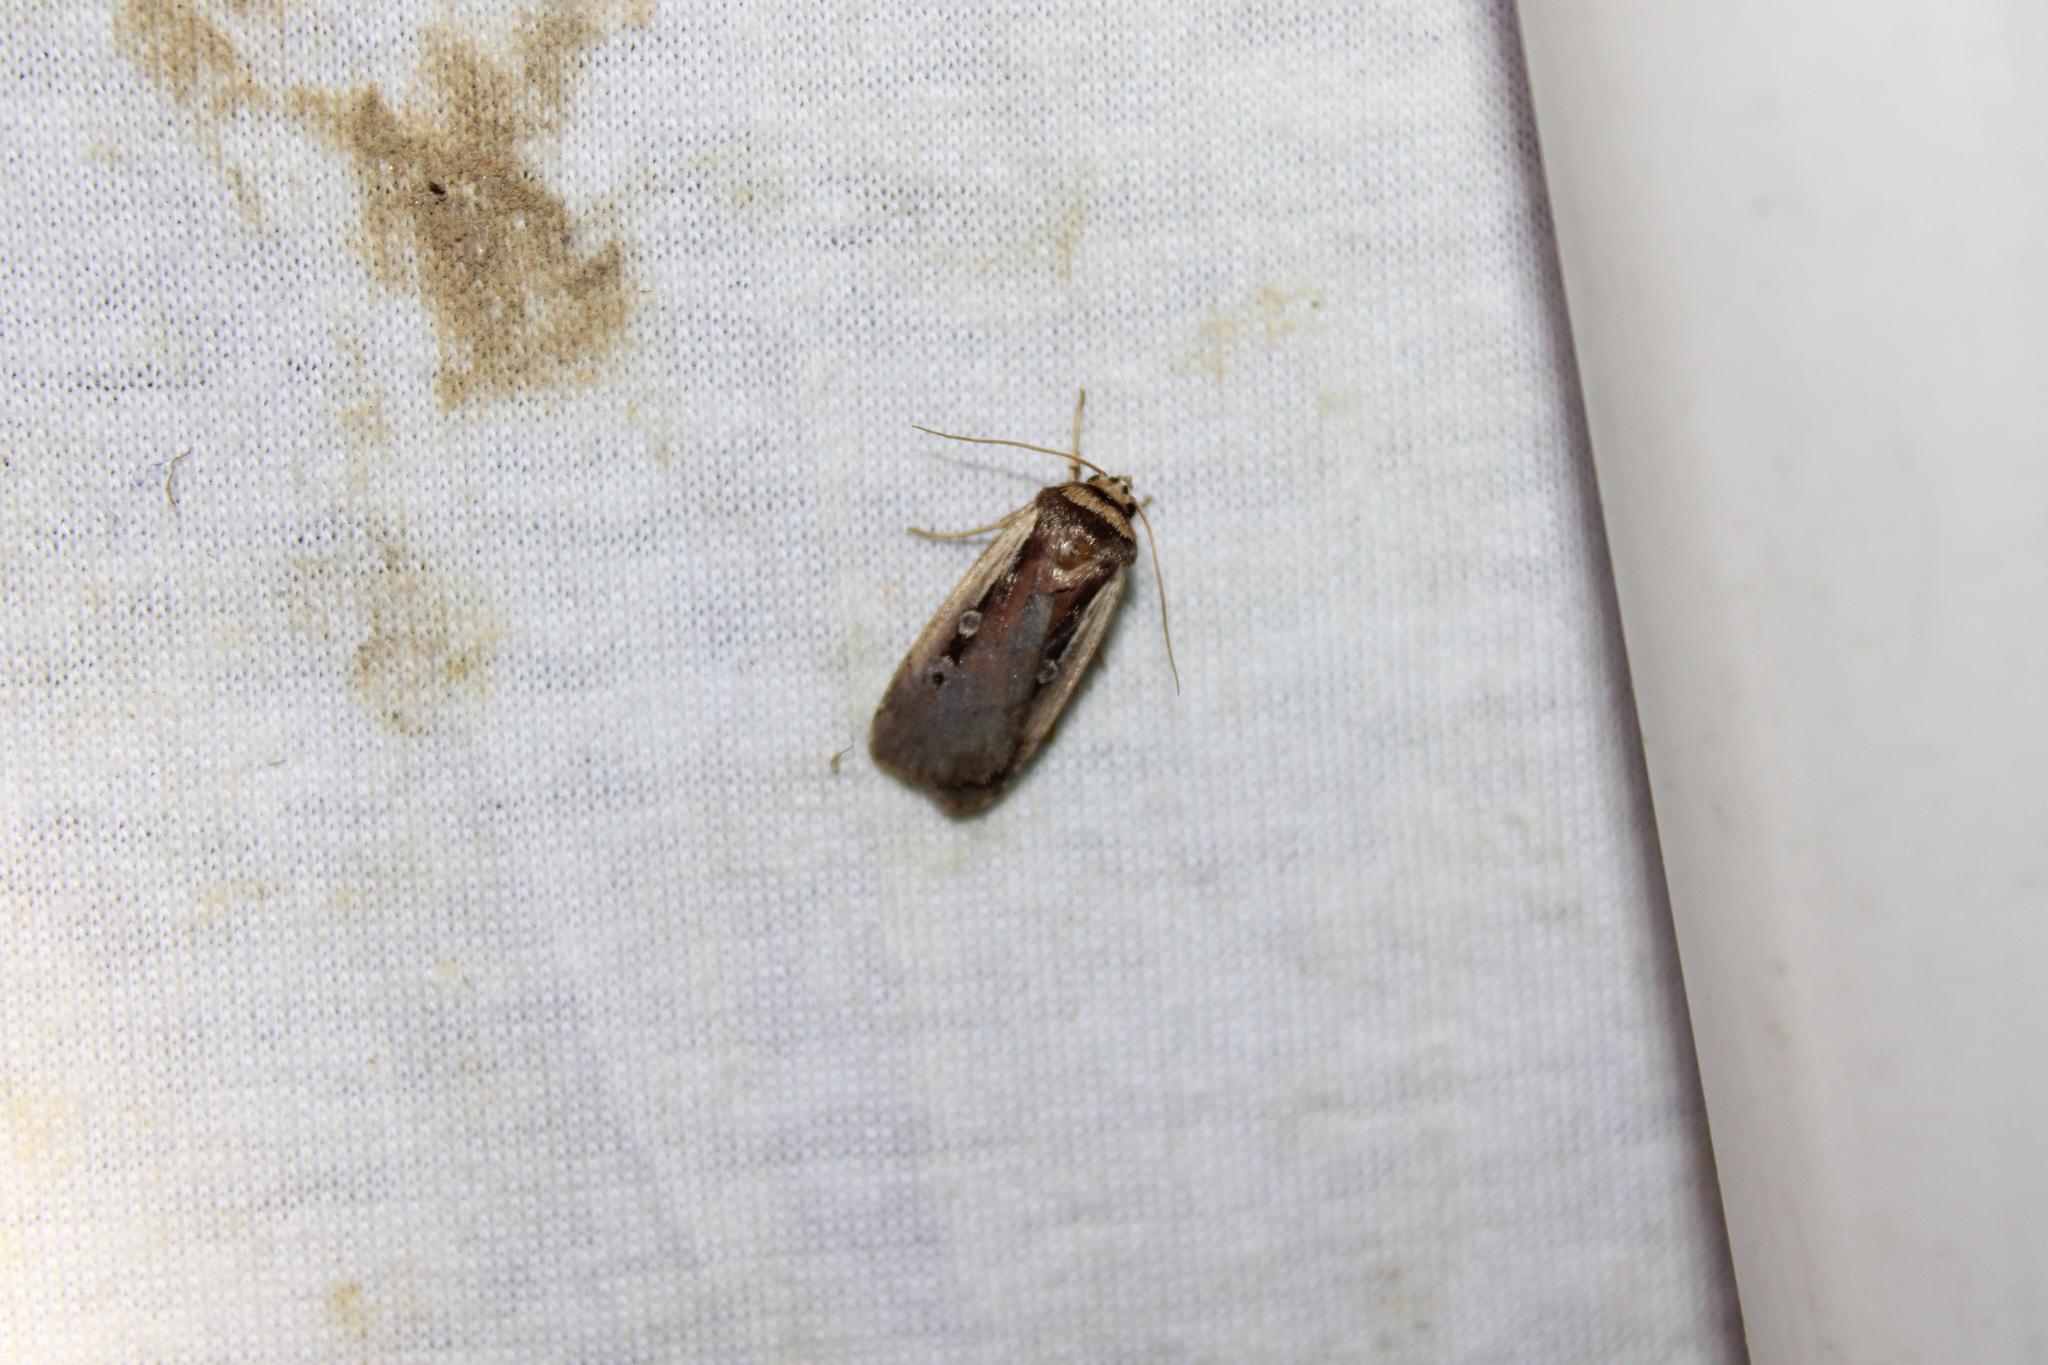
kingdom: Animalia
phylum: Arthropoda
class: Insecta
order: Lepidoptera
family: Noctuidae
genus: Ochropleura
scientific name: Ochropleura implecta
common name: Flame-shouldered dart
